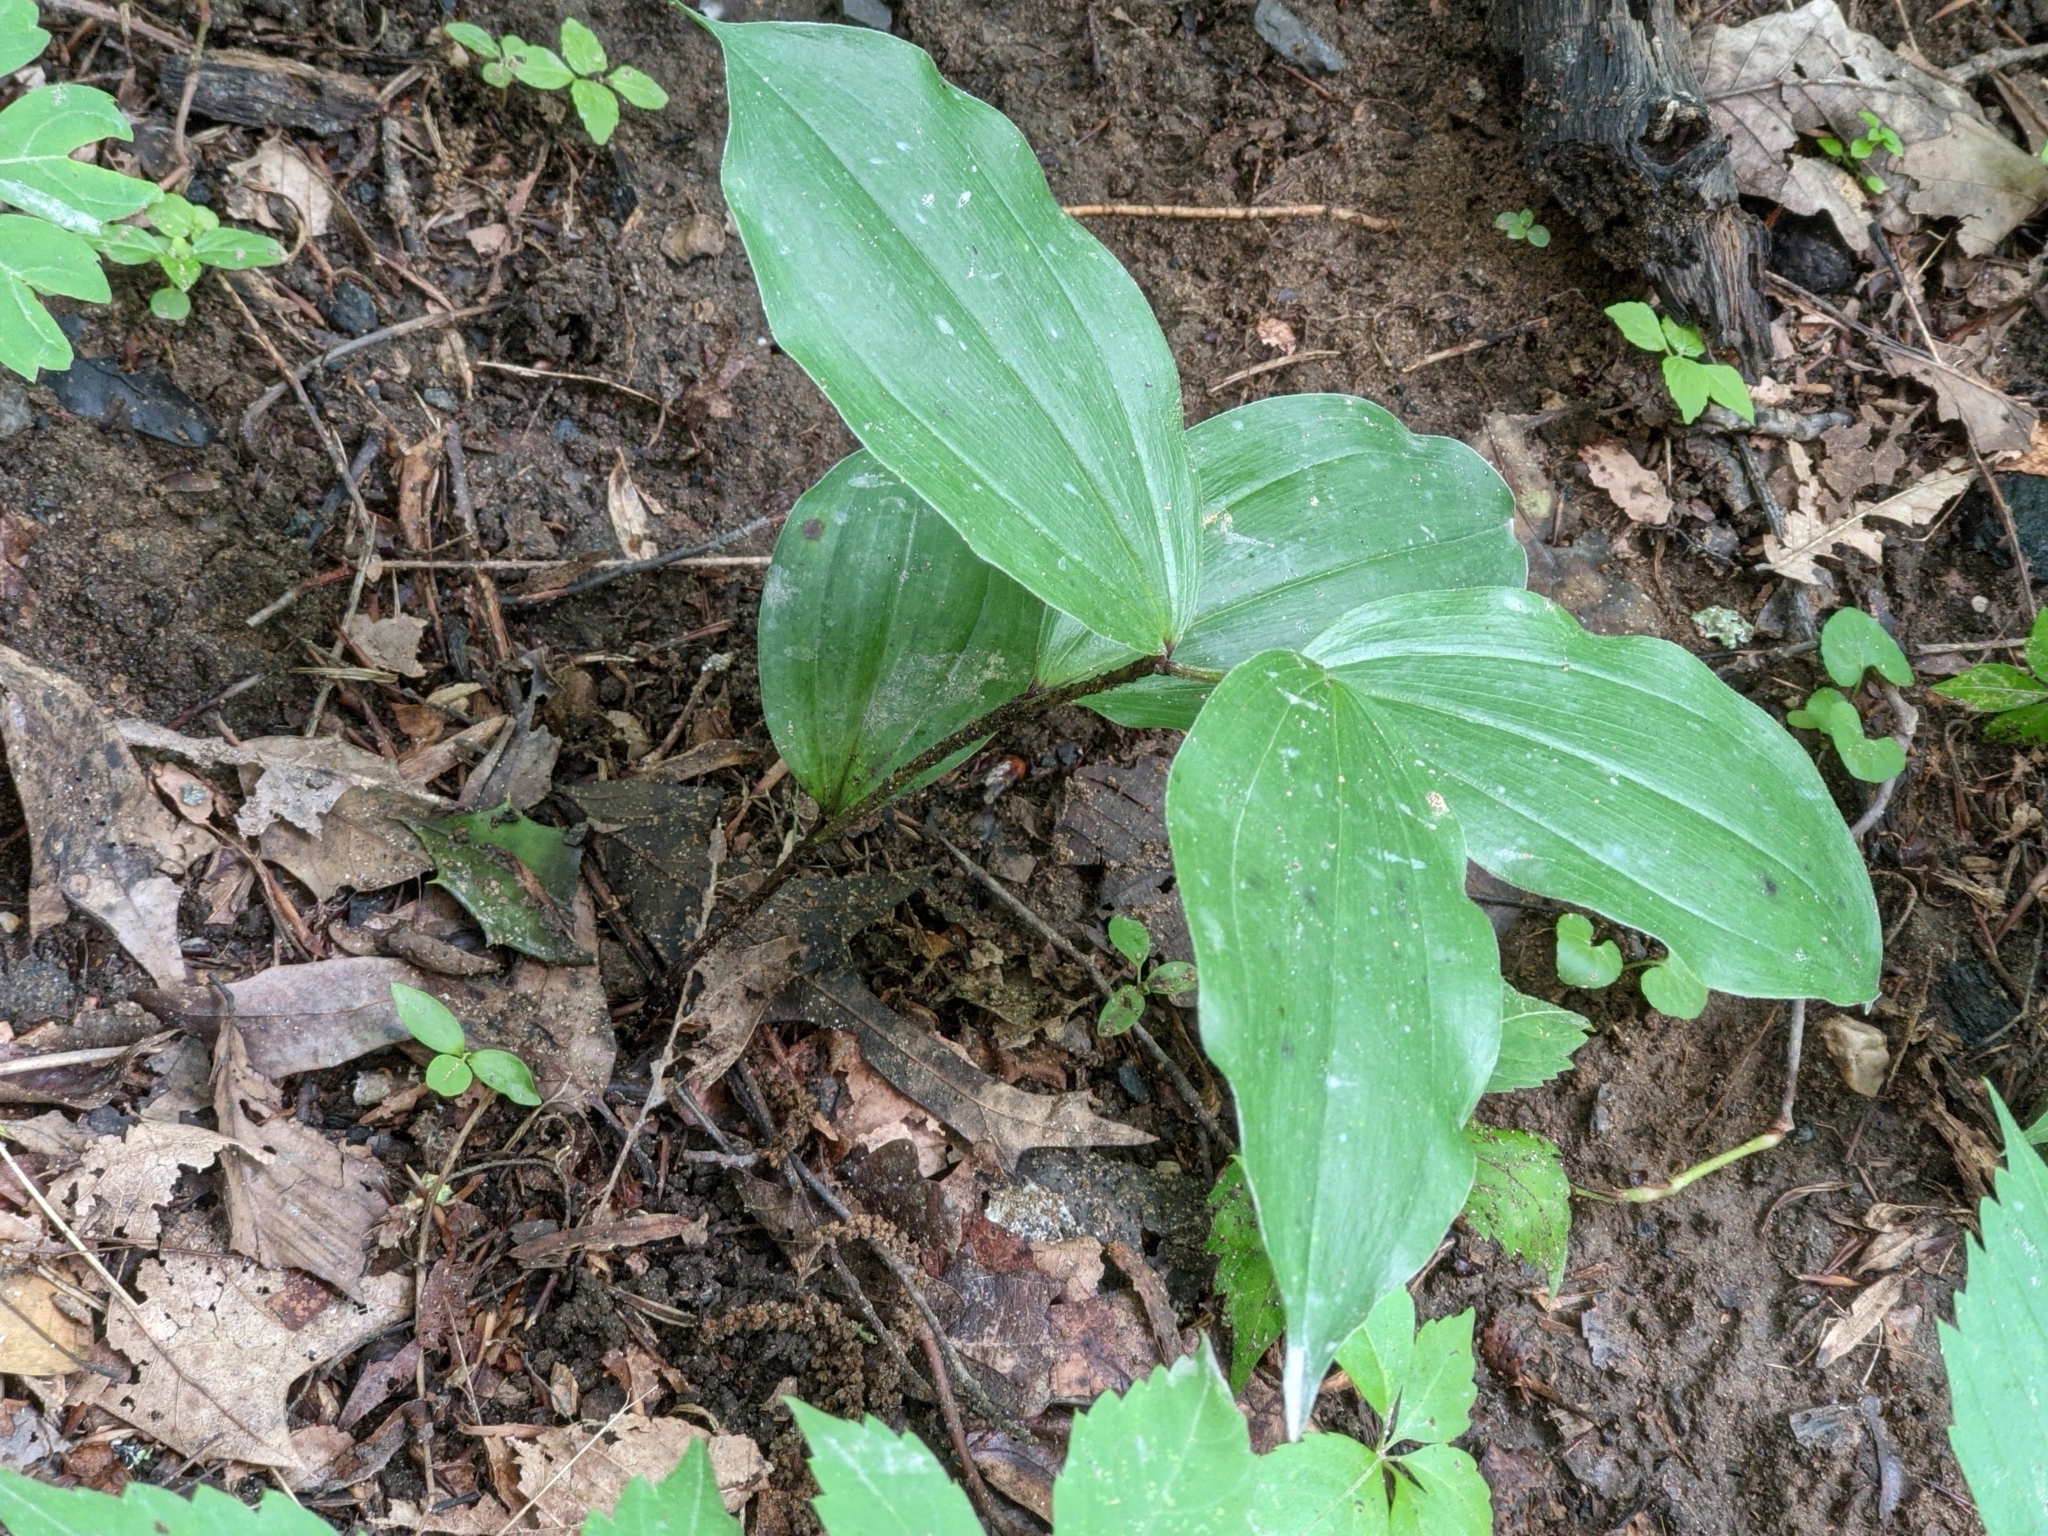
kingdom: Plantae
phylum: Tracheophyta
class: Liliopsida
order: Asparagales
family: Asparagaceae
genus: Maianthemum
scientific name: Maianthemum racemosum
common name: False spikenard
